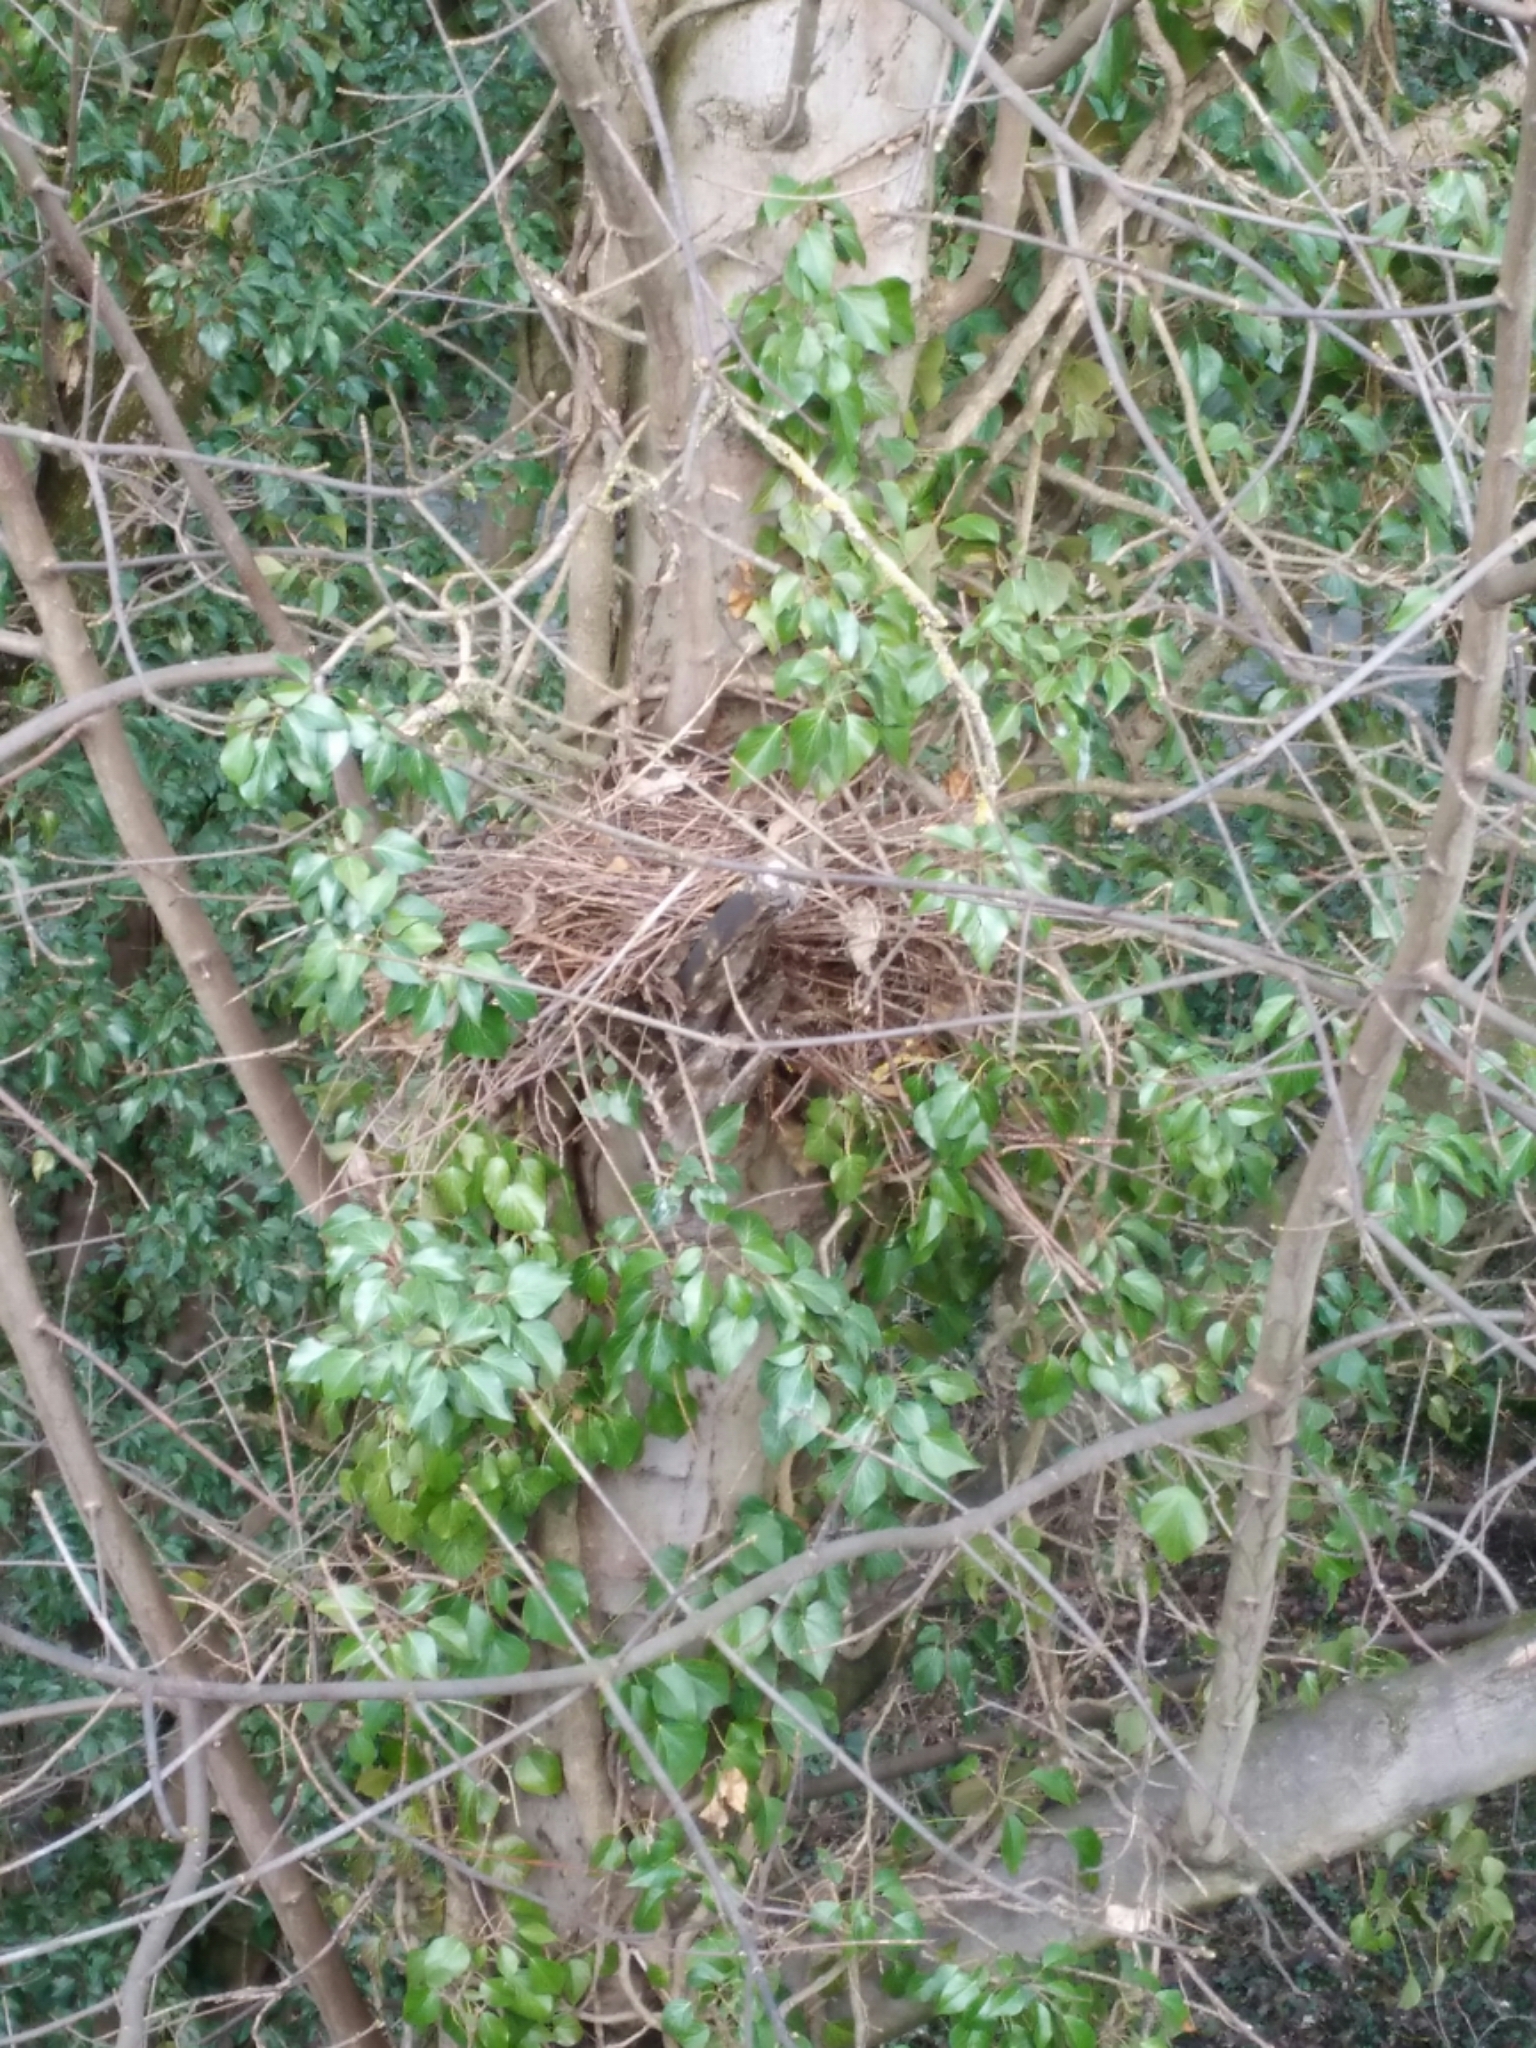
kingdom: Animalia
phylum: Chordata
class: Mammalia
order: Rodentia
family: Sciuridae
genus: Sciurus
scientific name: Sciurus vulgaris
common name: Eurasian red squirrel
